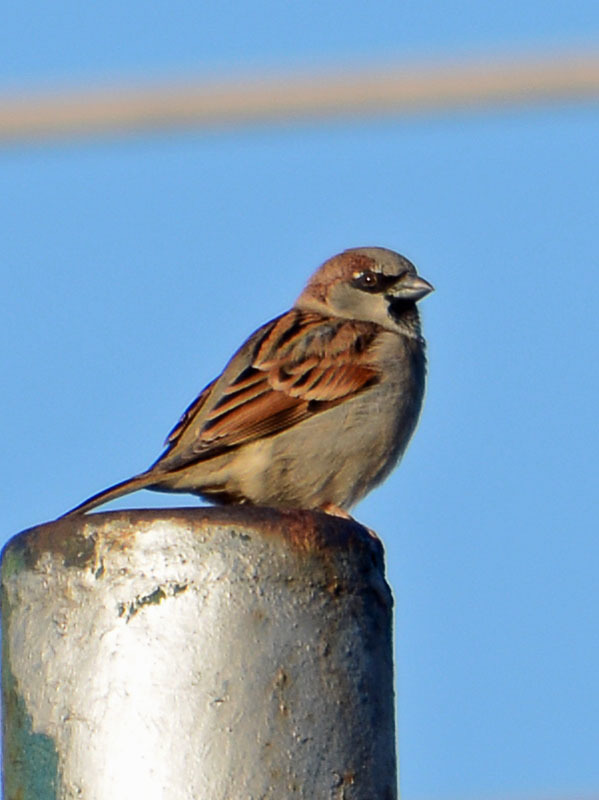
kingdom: Animalia
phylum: Chordata
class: Aves
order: Passeriformes
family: Passeridae
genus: Passer
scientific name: Passer domesticus
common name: House sparrow
